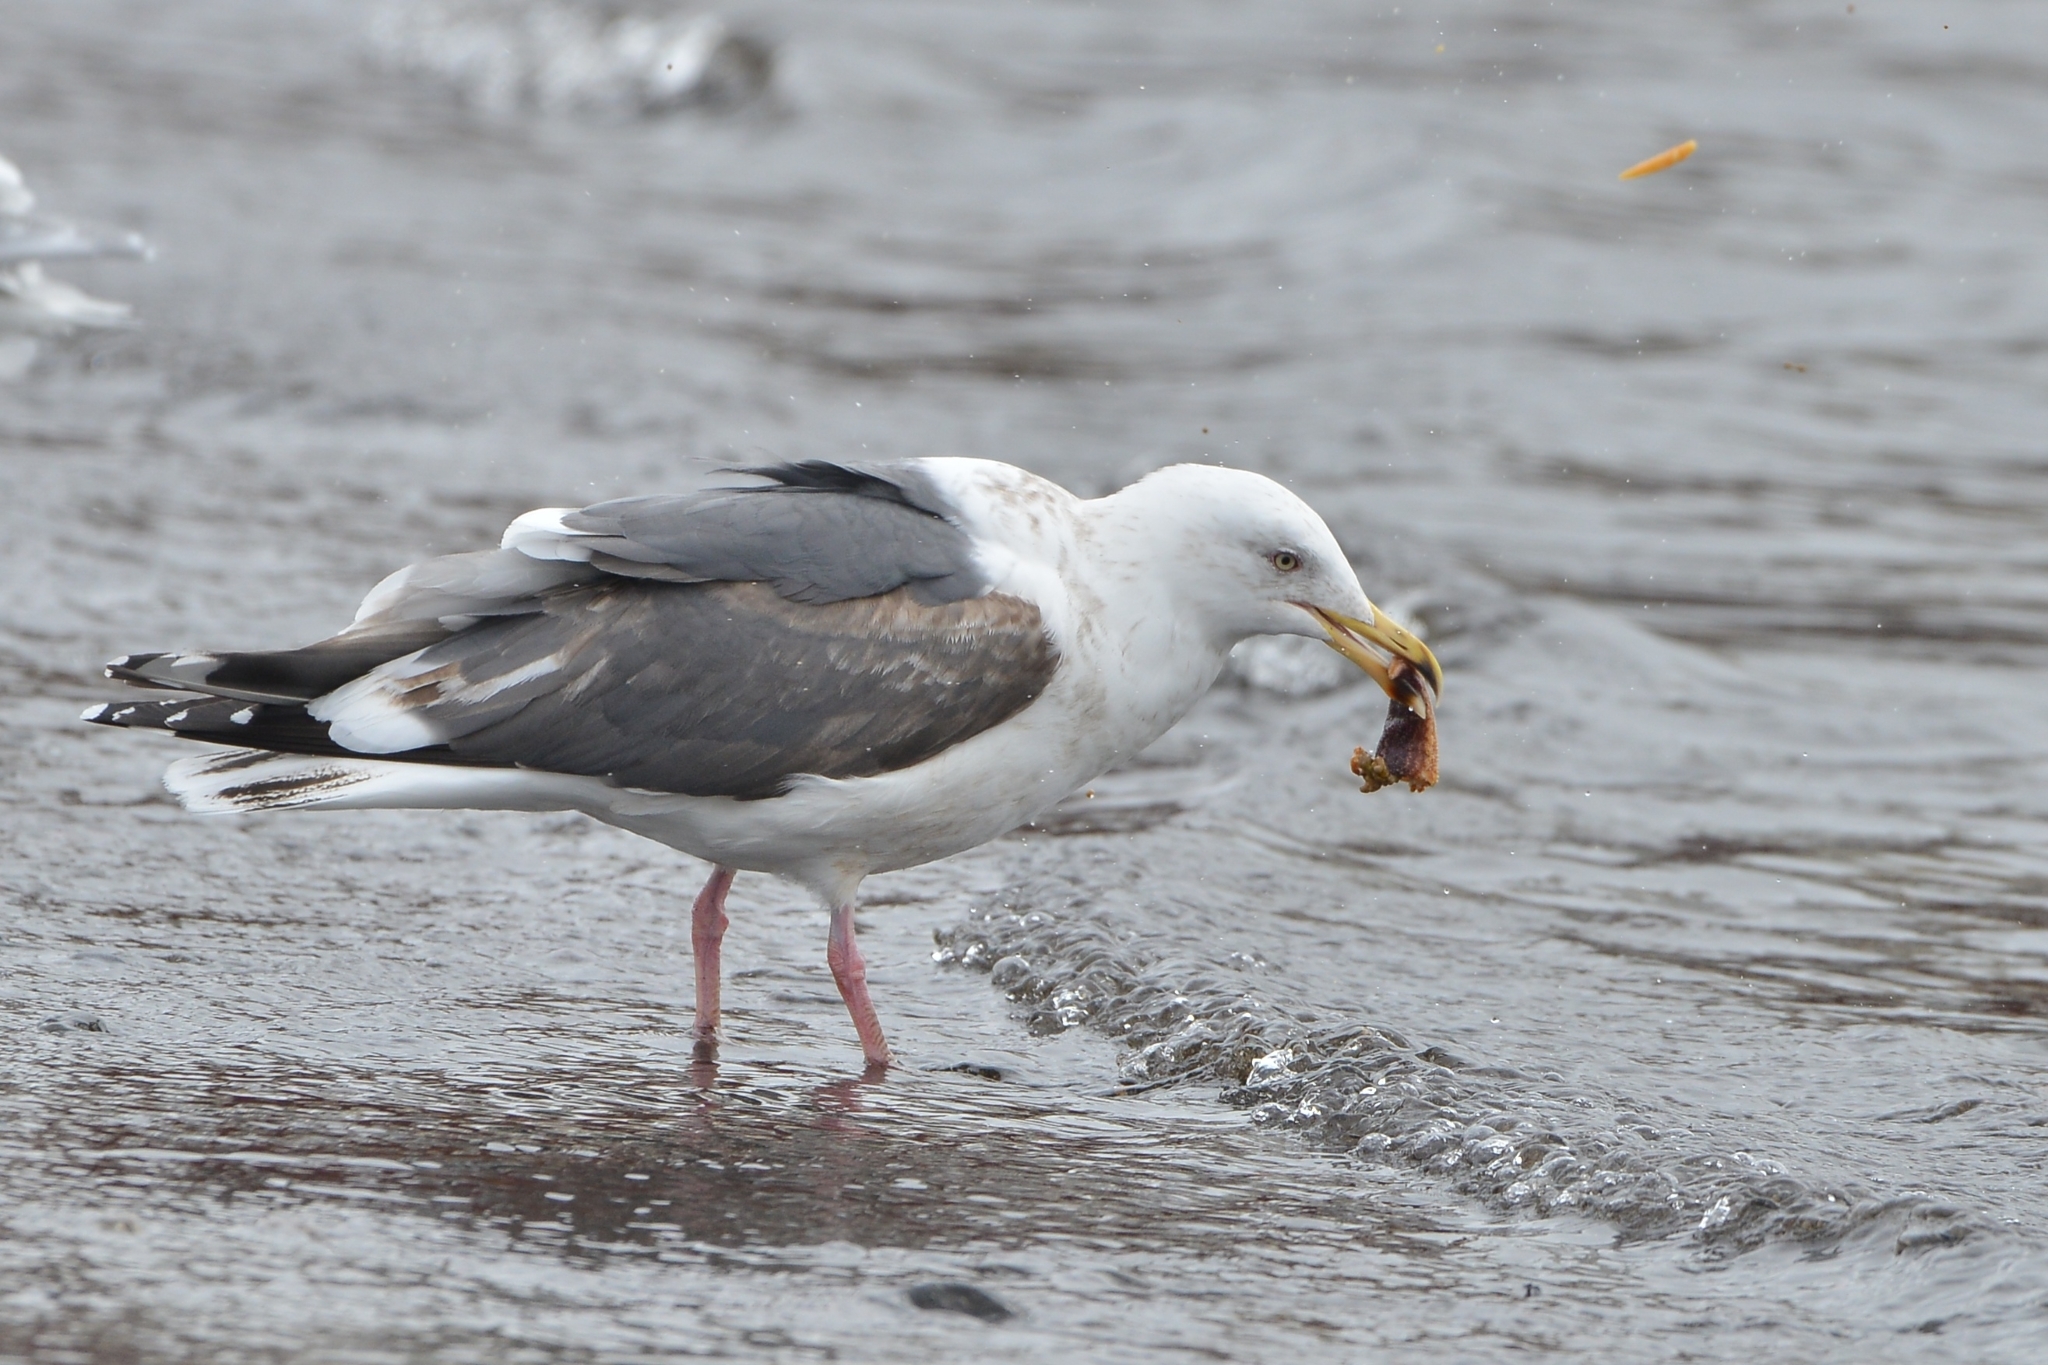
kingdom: Animalia
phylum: Chordata
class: Aves
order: Charadriiformes
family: Laridae
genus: Larus
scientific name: Larus schistisagus
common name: Slaty-backed gull
